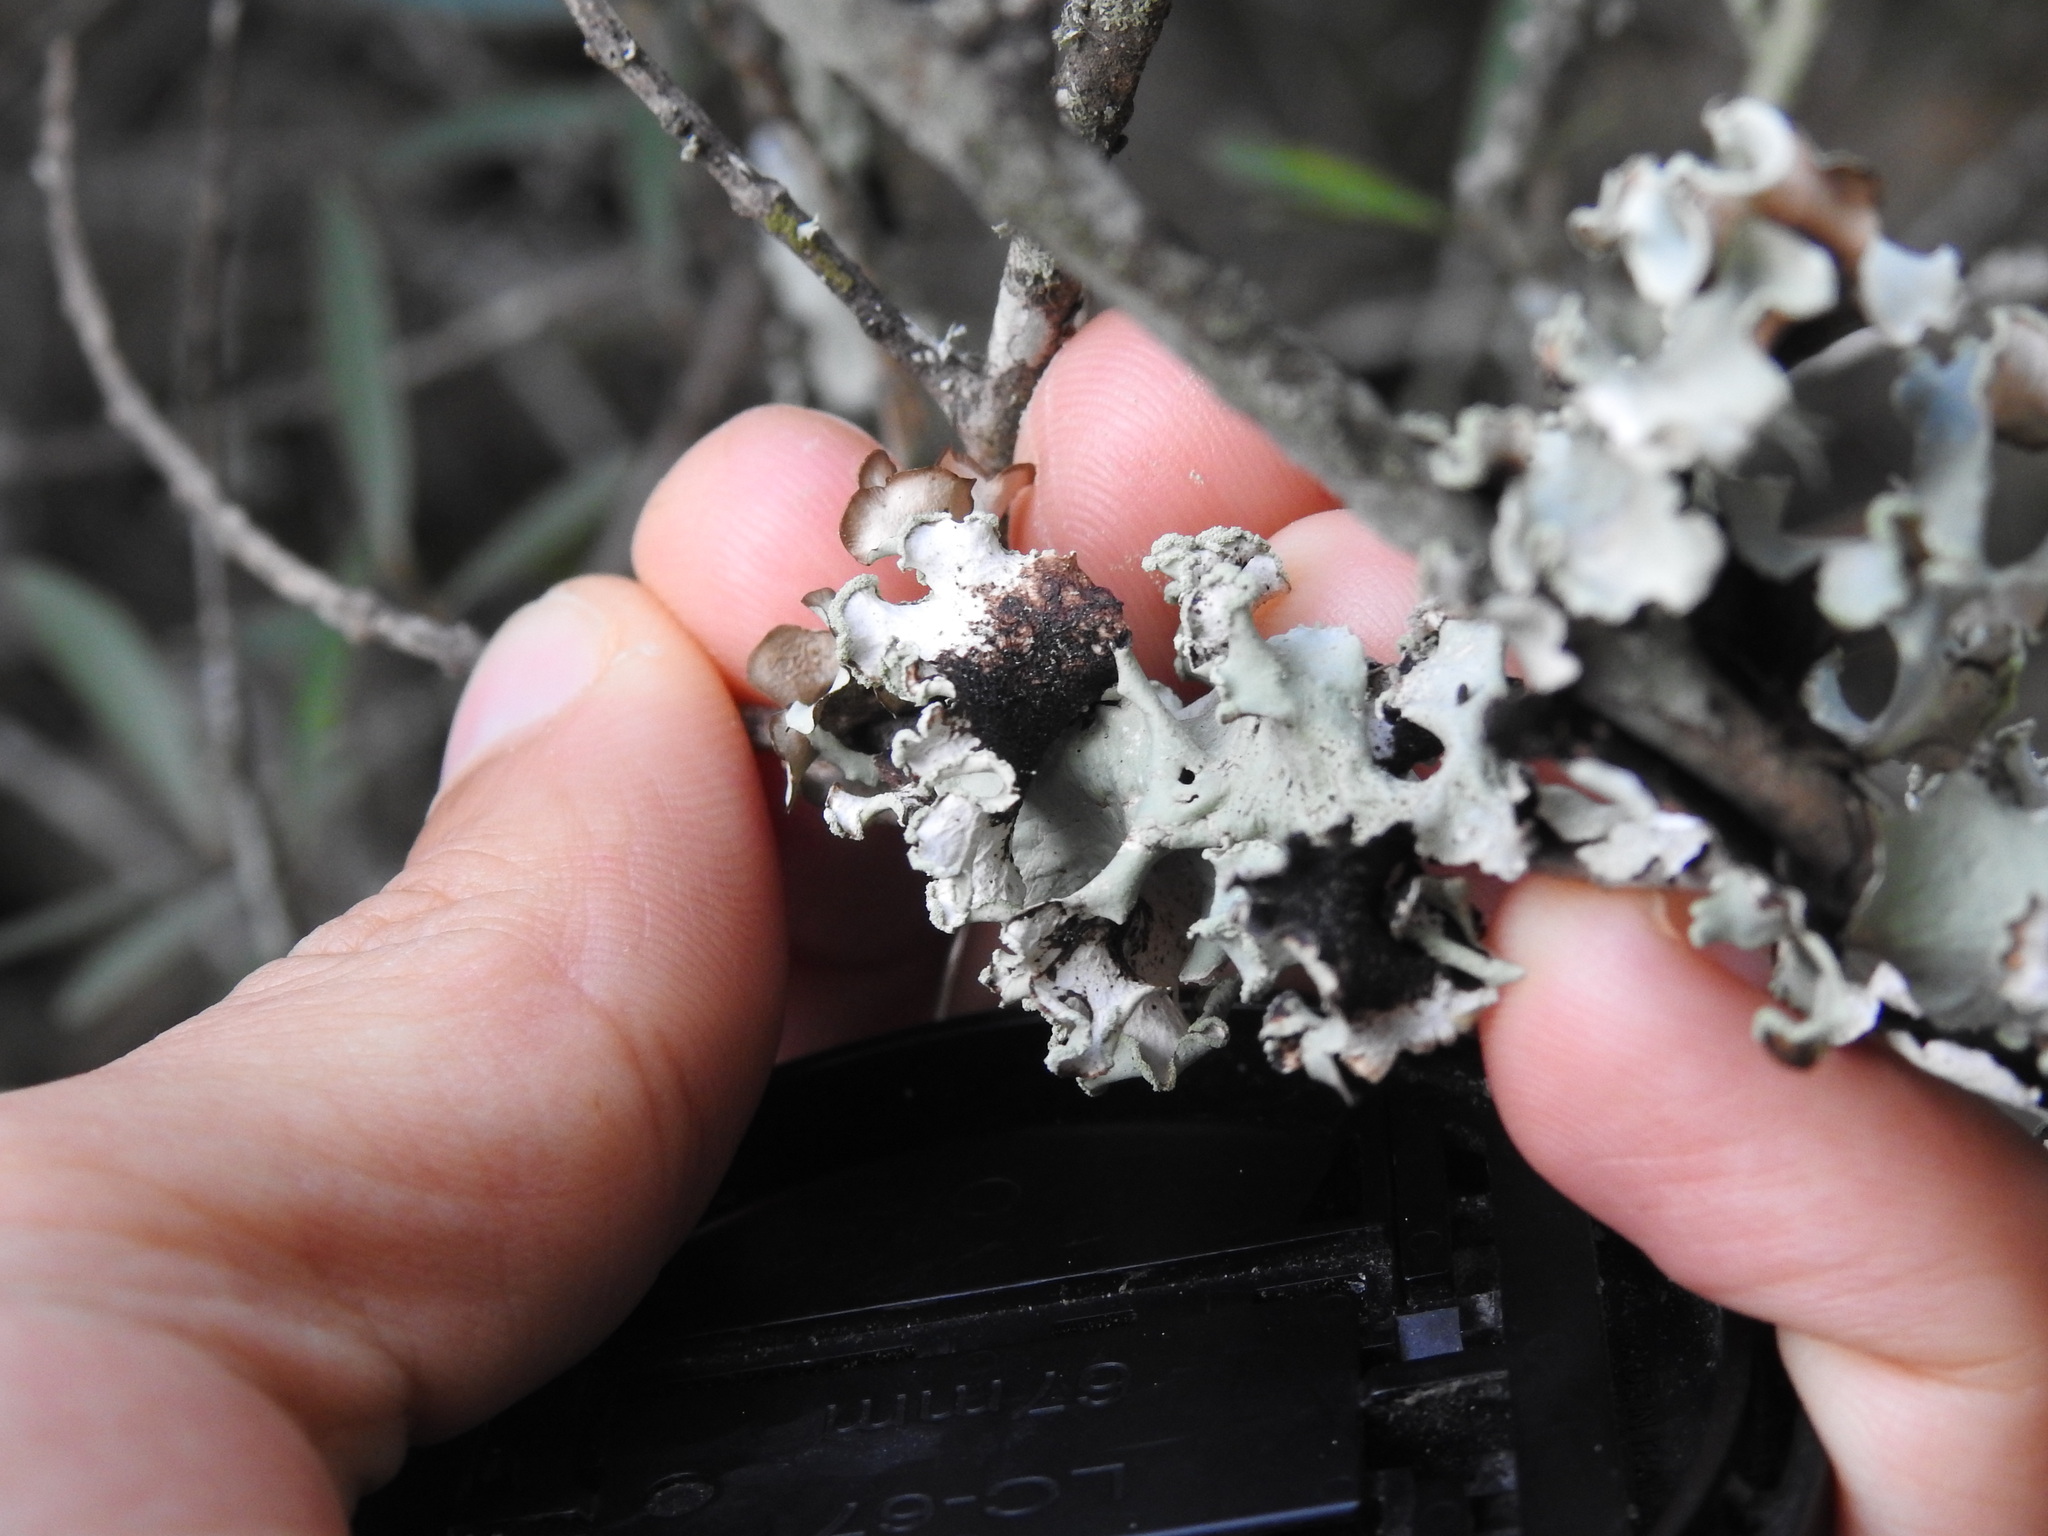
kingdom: Fungi
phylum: Ascomycota
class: Lecanoromycetes
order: Lecanorales
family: Parmeliaceae
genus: Parmotrema
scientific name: Parmotrema hypoleucinum
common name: Lacy powdered-ruffle
